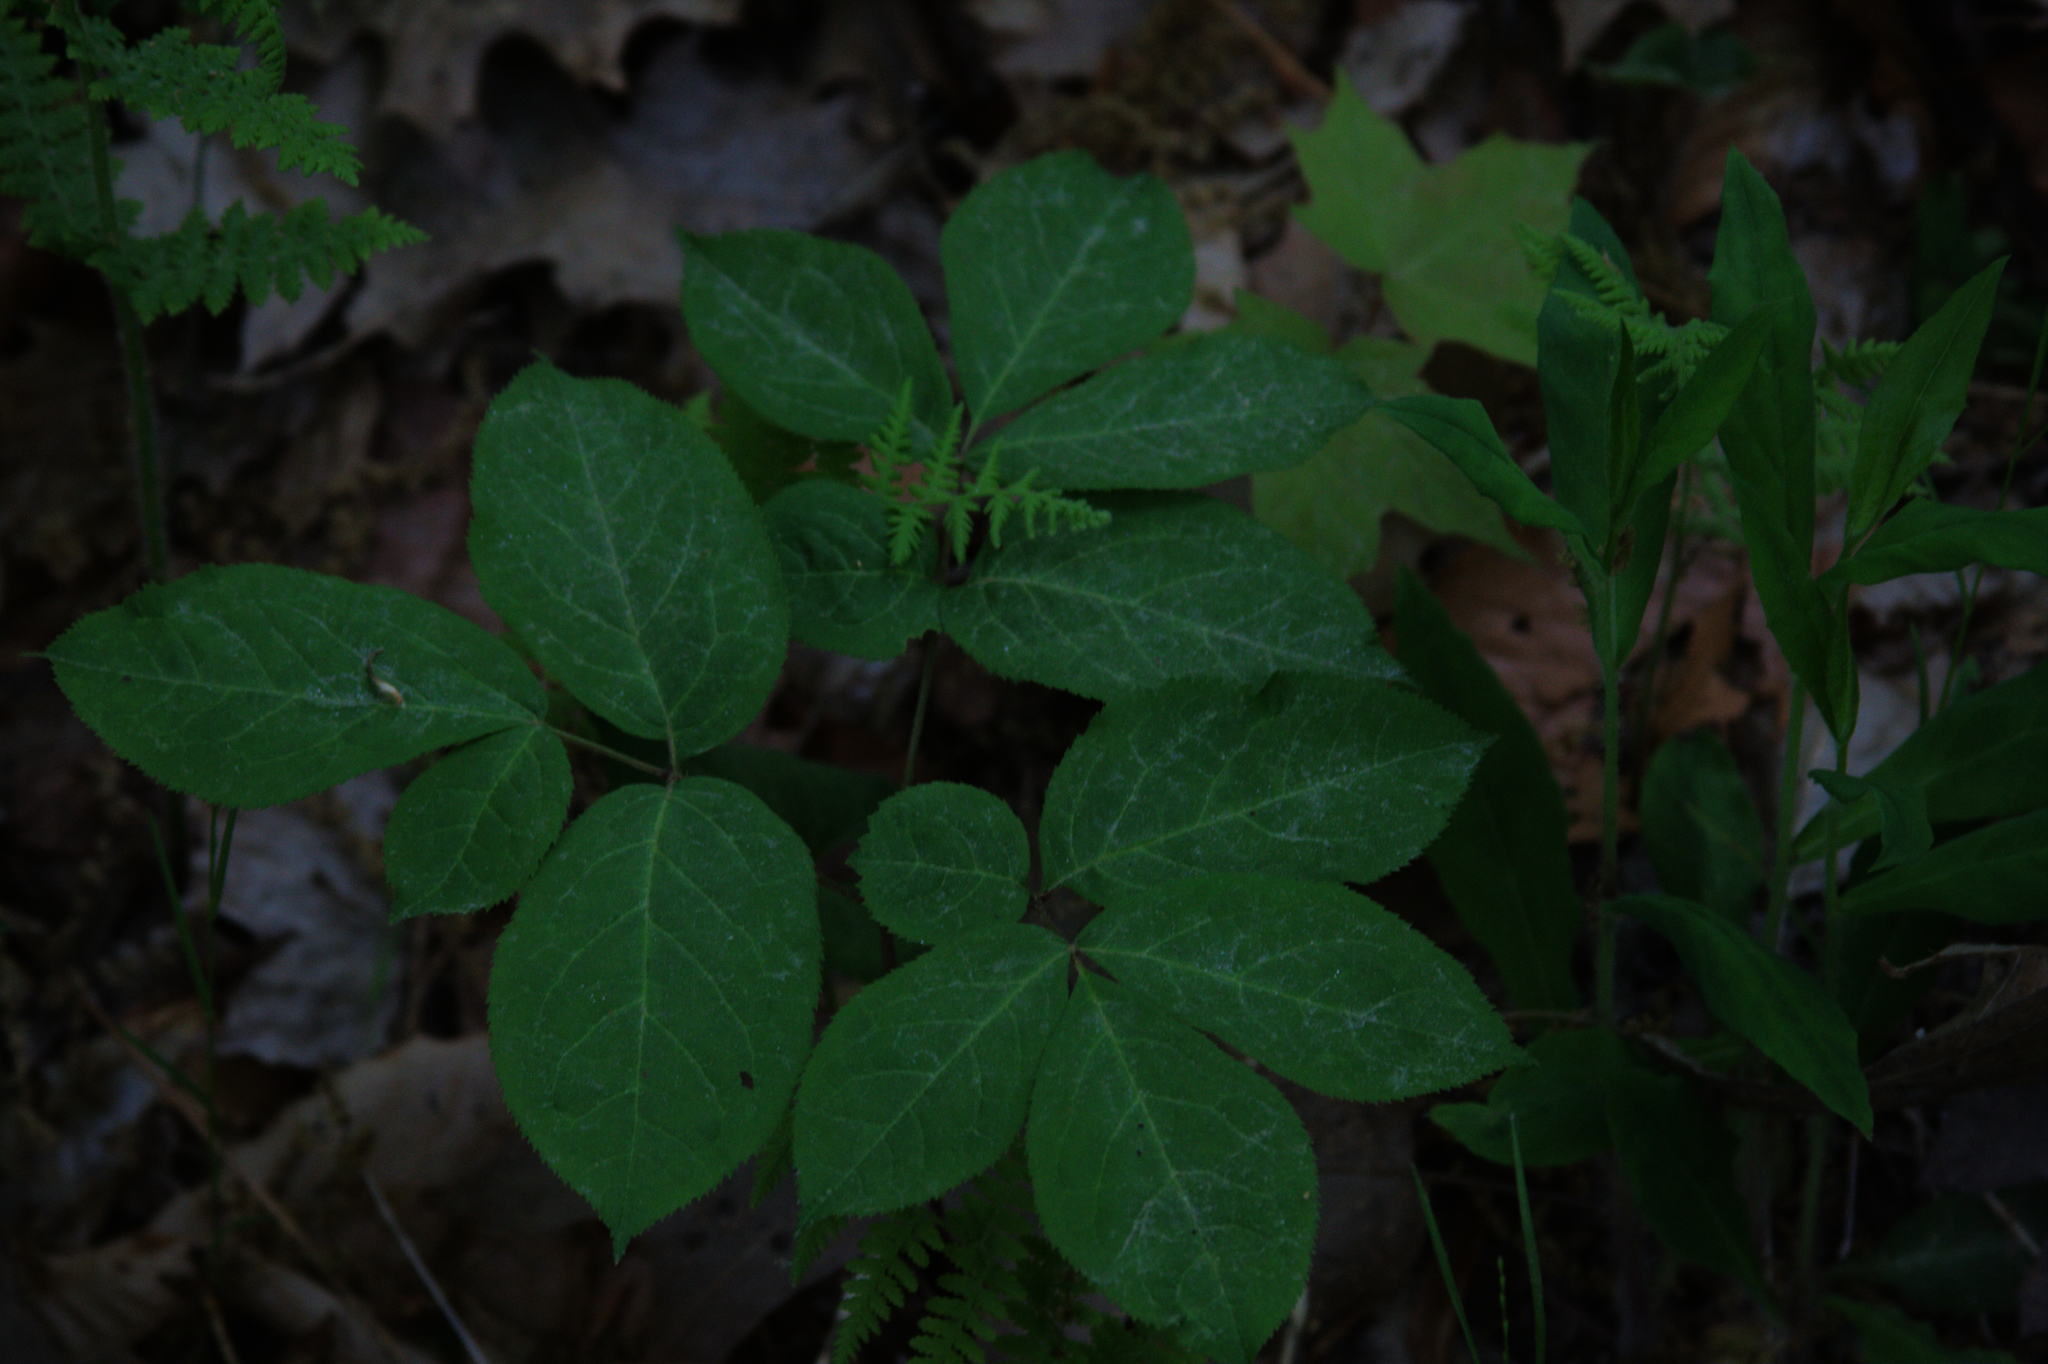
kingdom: Plantae
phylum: Tracheophyta
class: Magnoliopsida
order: Apiales
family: Araliaceae
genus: Aralia
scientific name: Aralia nudicaulis
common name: Wild sarsaparilla
